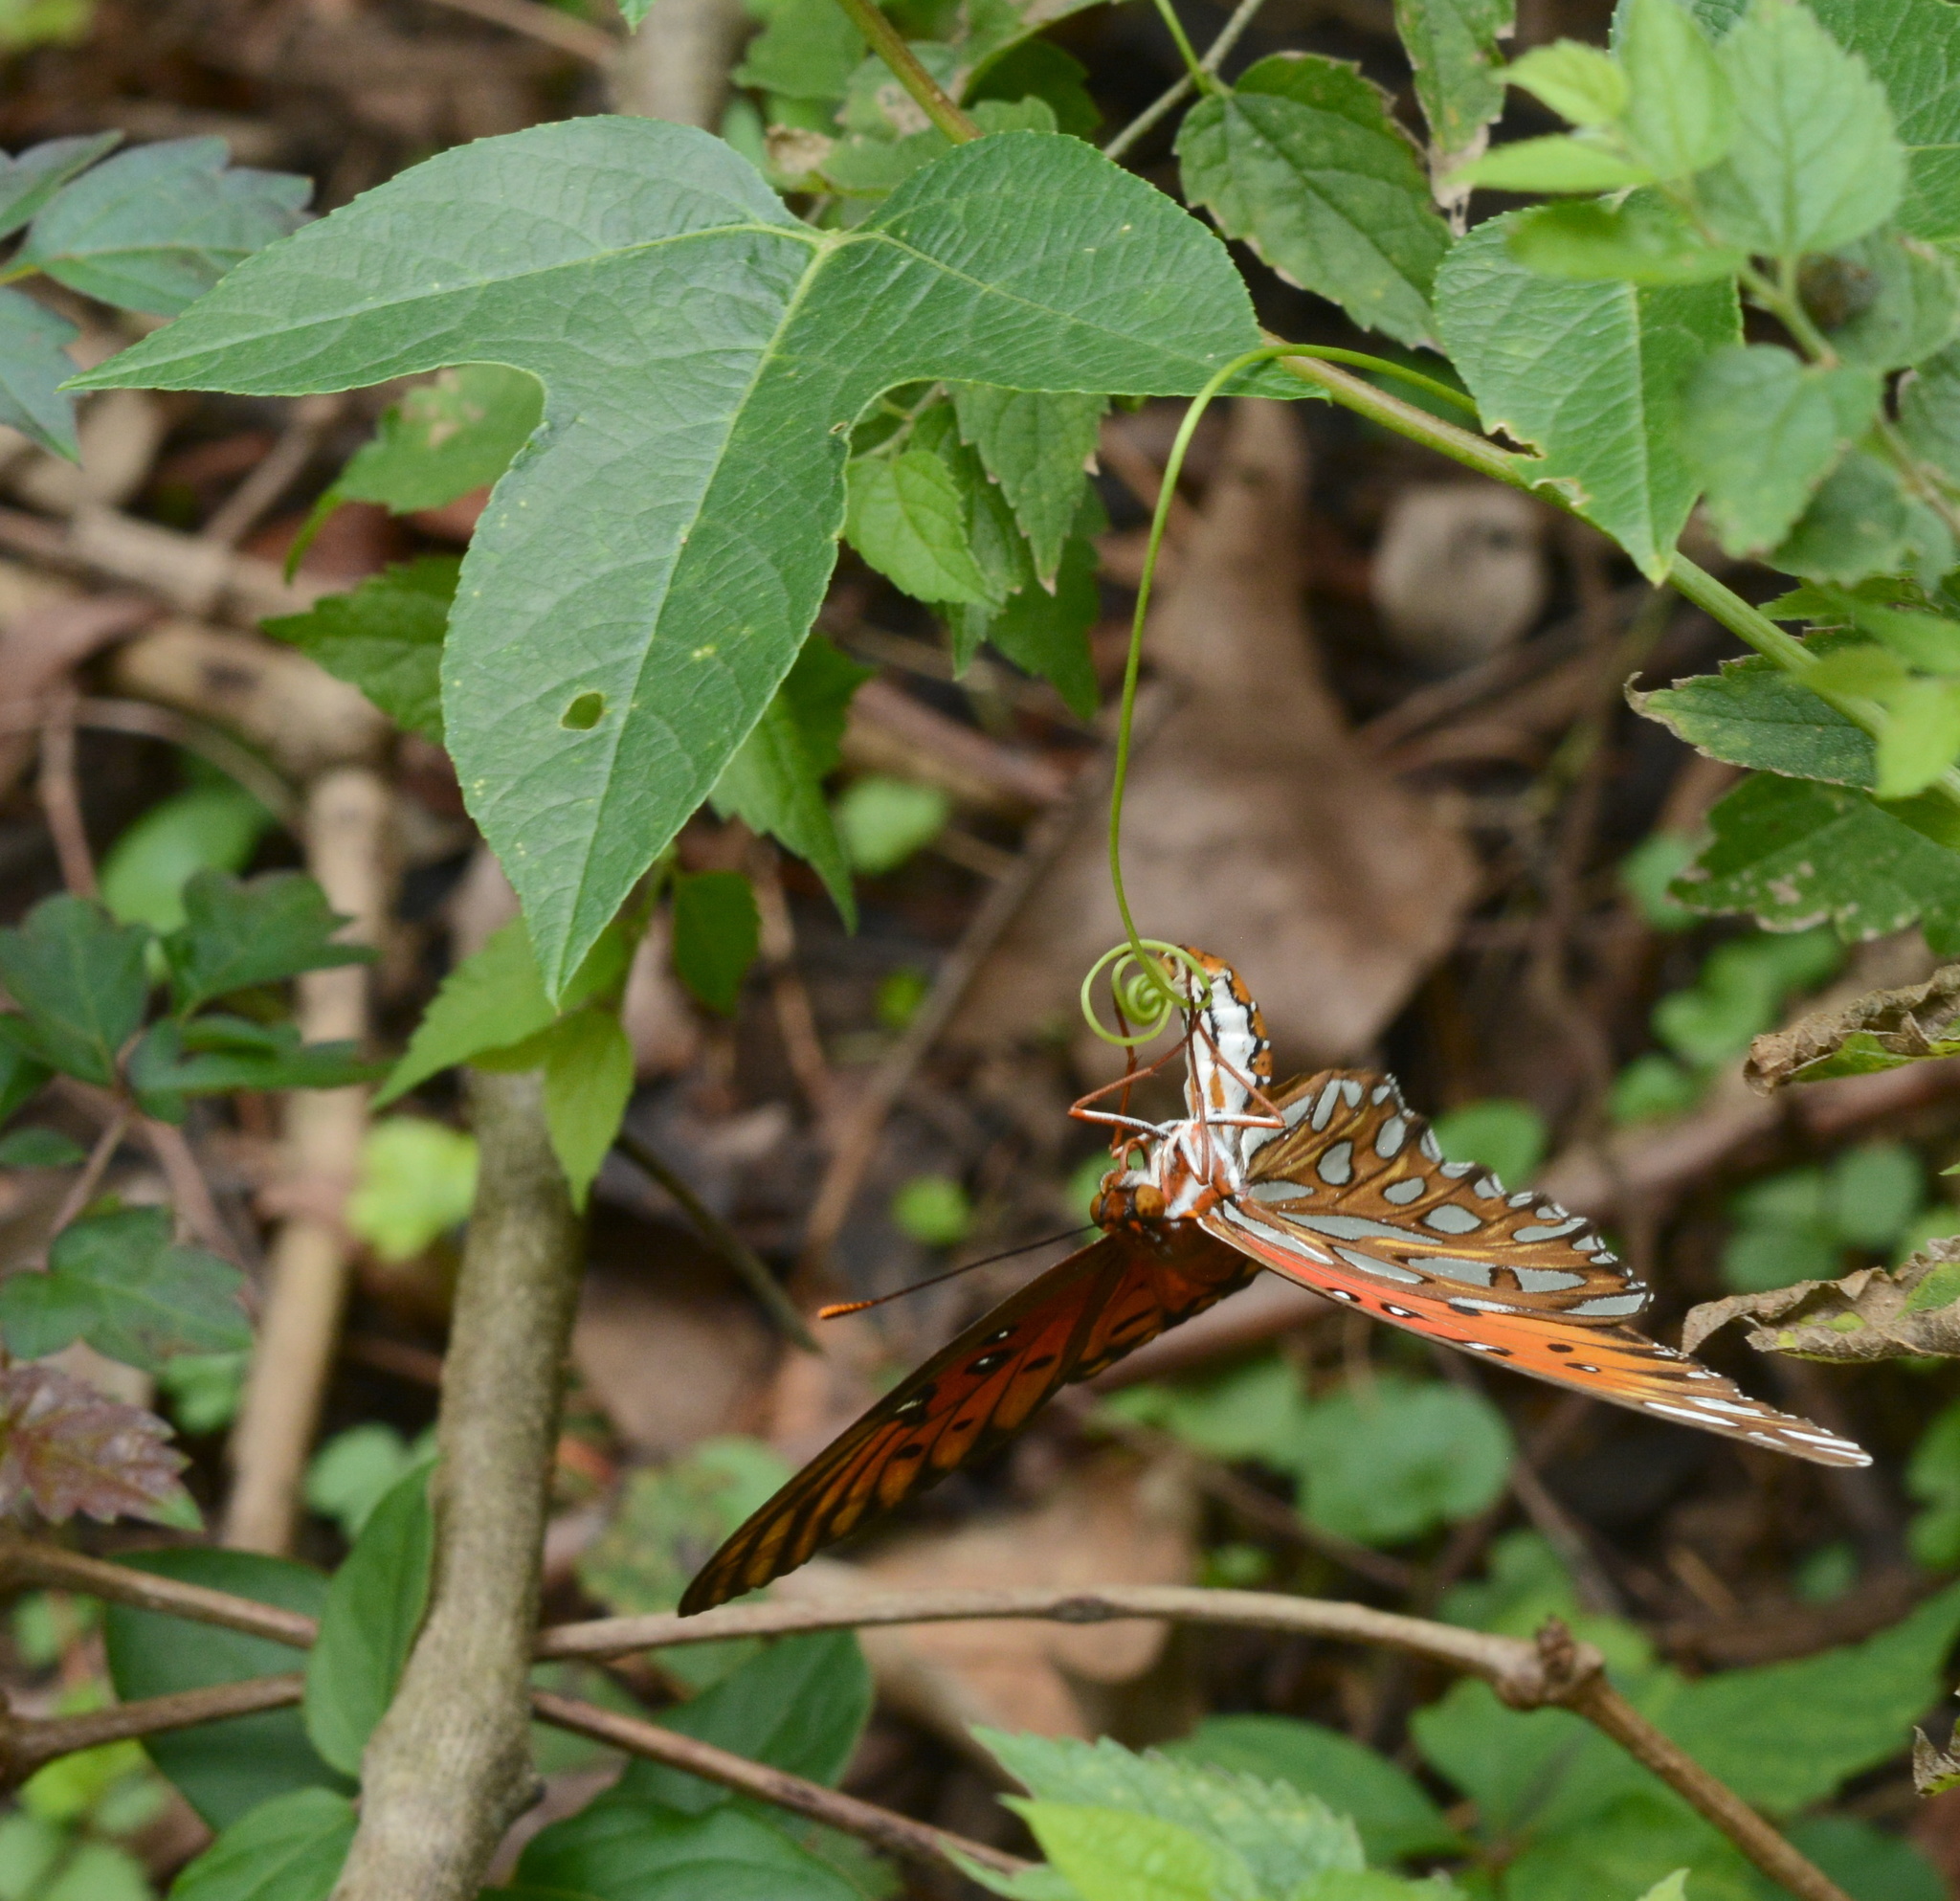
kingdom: Animalia
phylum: Arthropoda
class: Insecta
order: Lepidoptera
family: Nymphalidae
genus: Dione
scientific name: Dione vanillae
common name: Gulf fritillary
